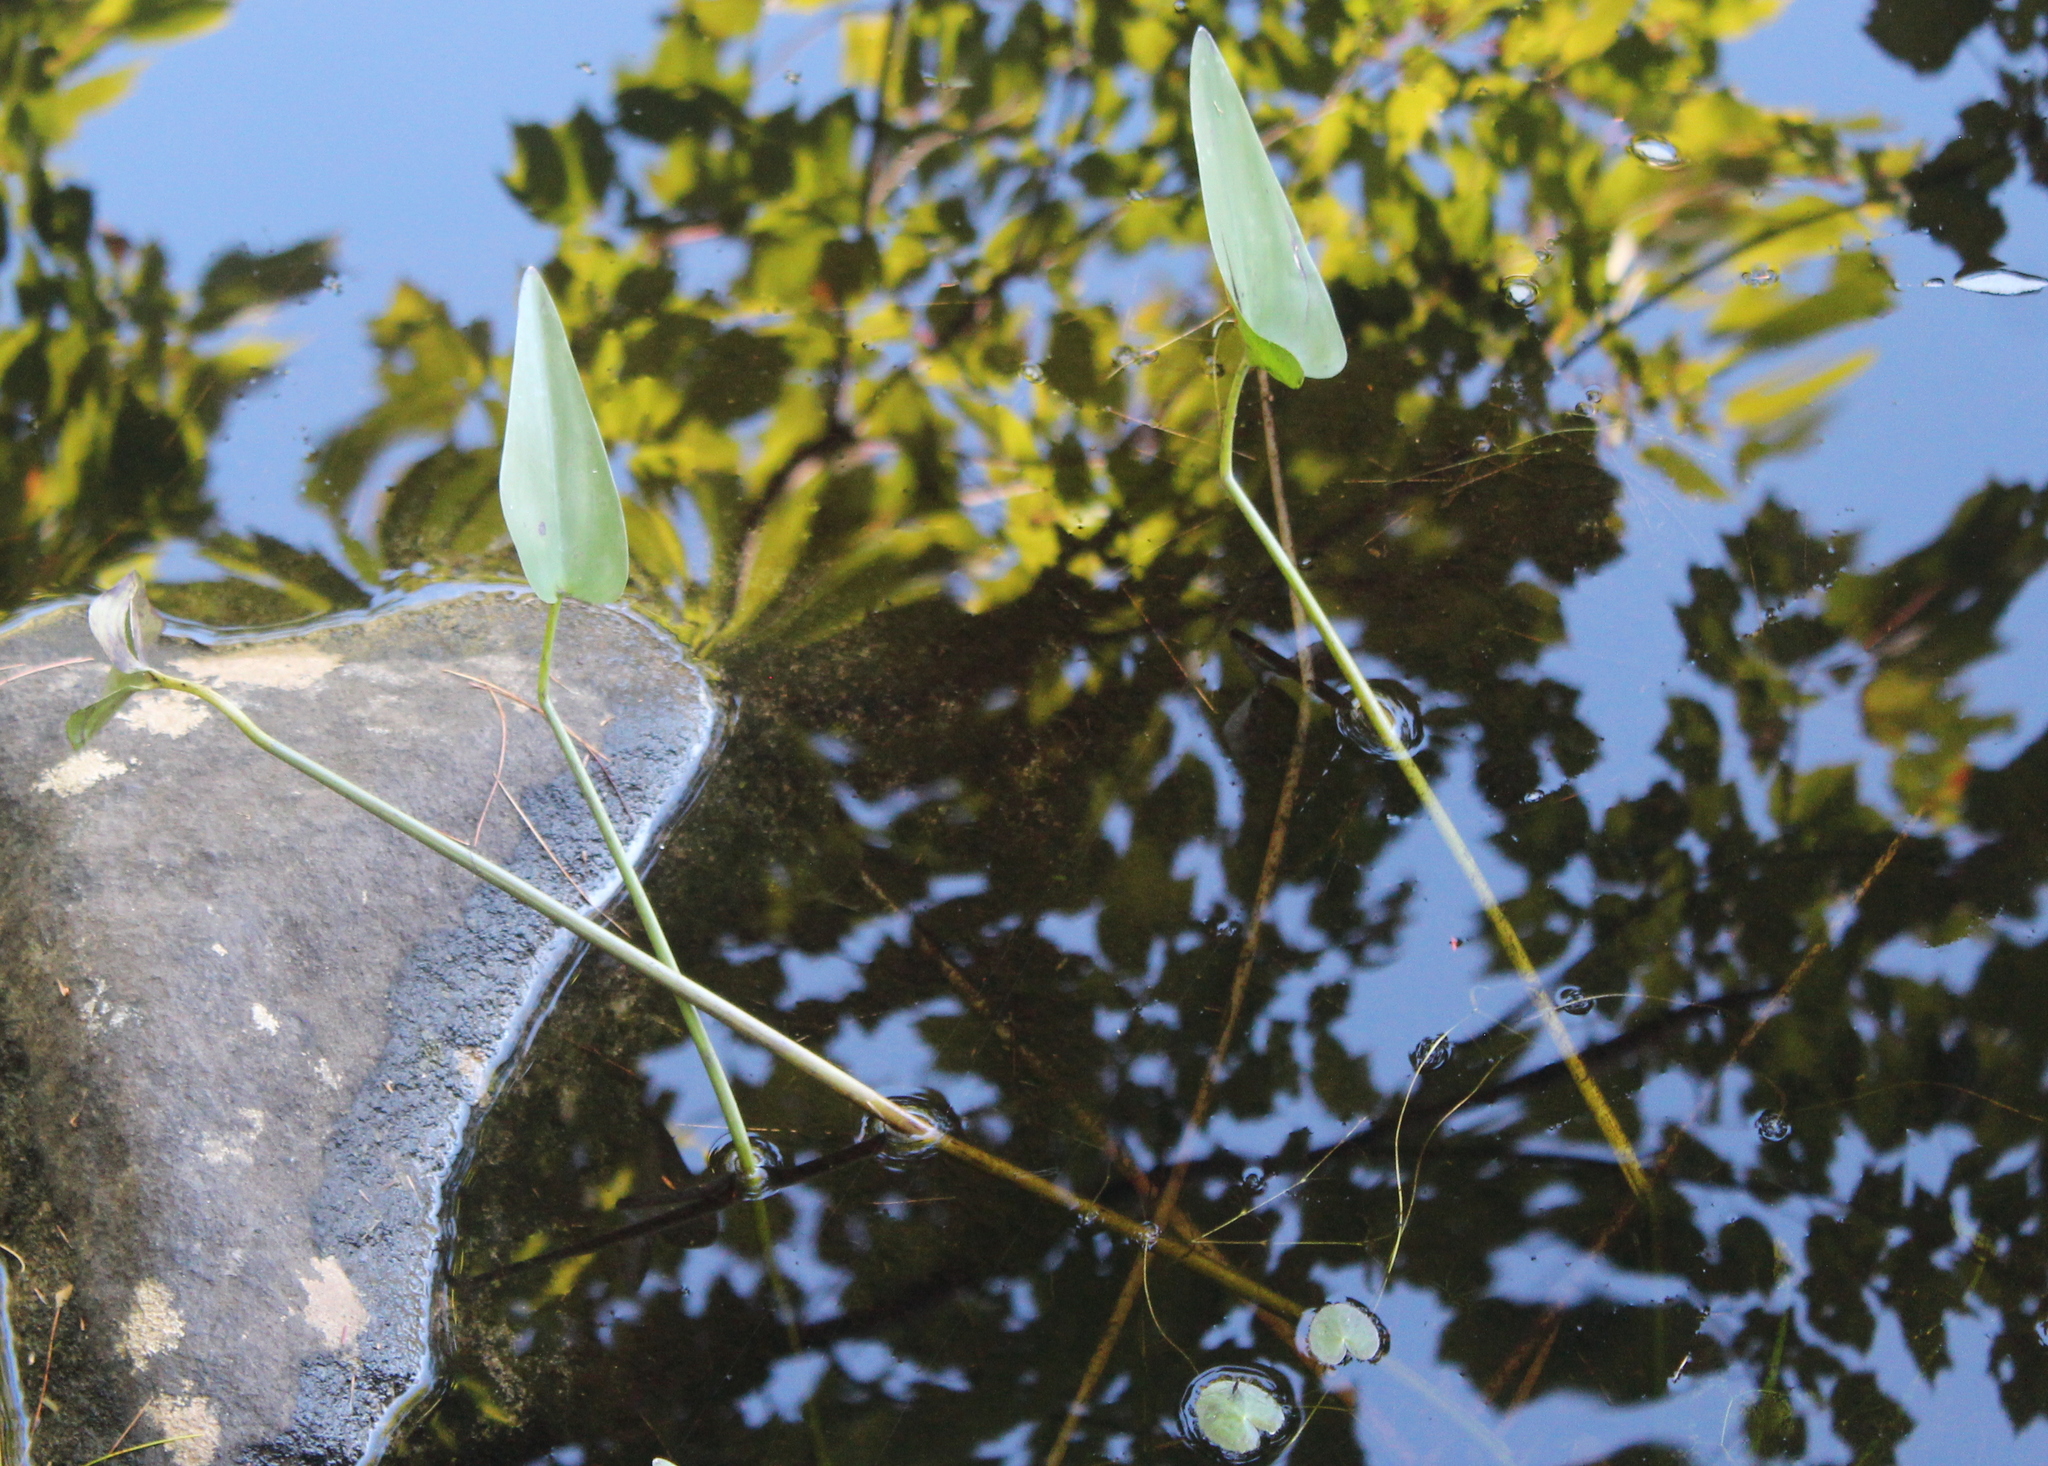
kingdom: Plantae
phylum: Tracheophyta
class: Liliopsida
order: Commelinales
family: Pontederiaceae
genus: Pontederia
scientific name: Pontederia cordata
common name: Pickerelweed
